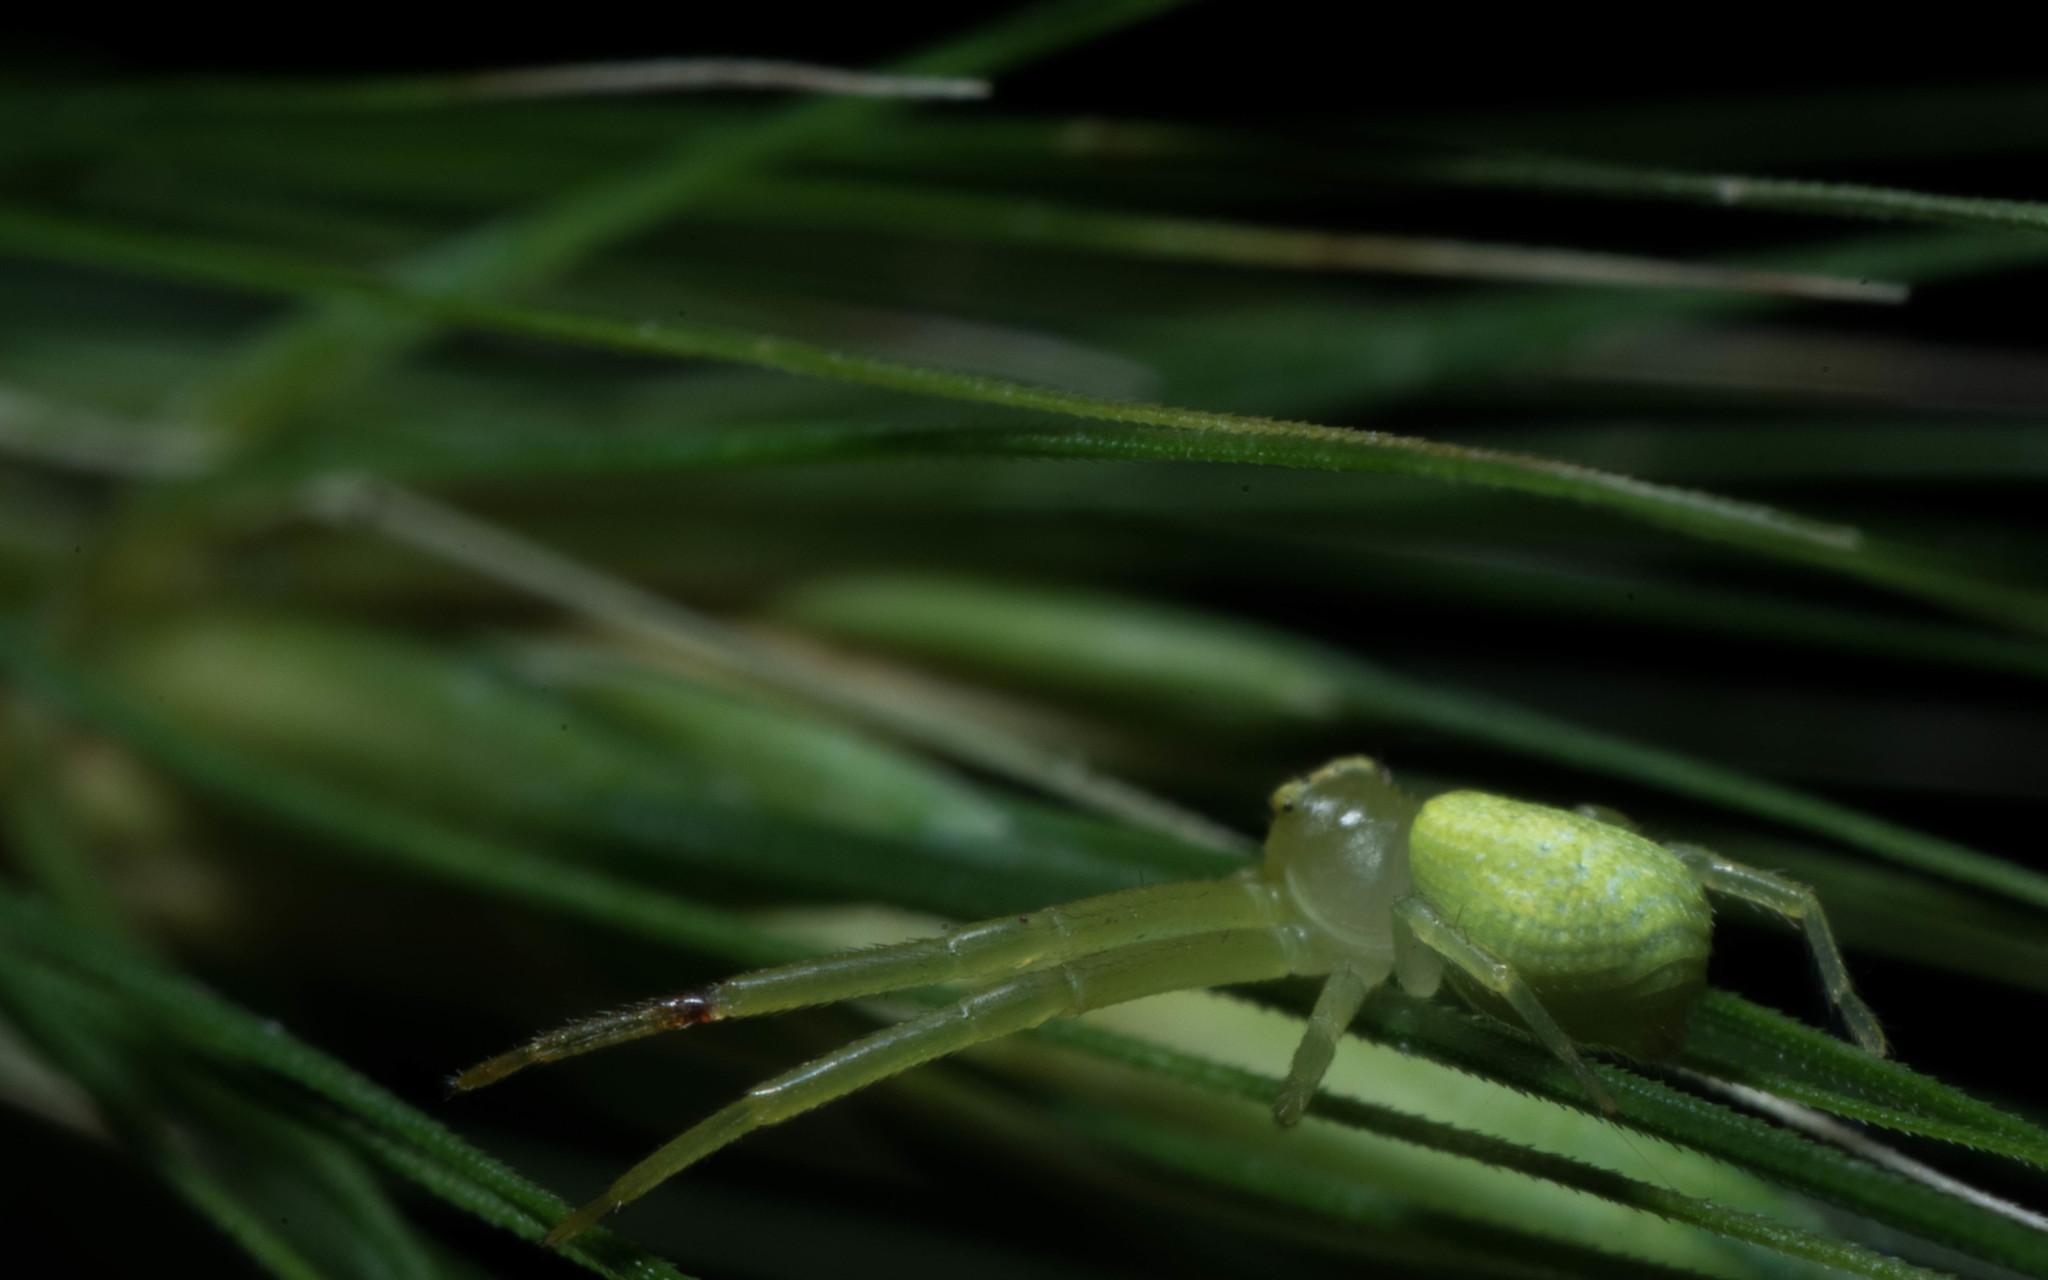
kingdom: Animalia
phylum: Arthropoda
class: Arachnida
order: Araneae
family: Thomisidae
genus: Misumessus
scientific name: Misumessus oblongus
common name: American green crab spider
